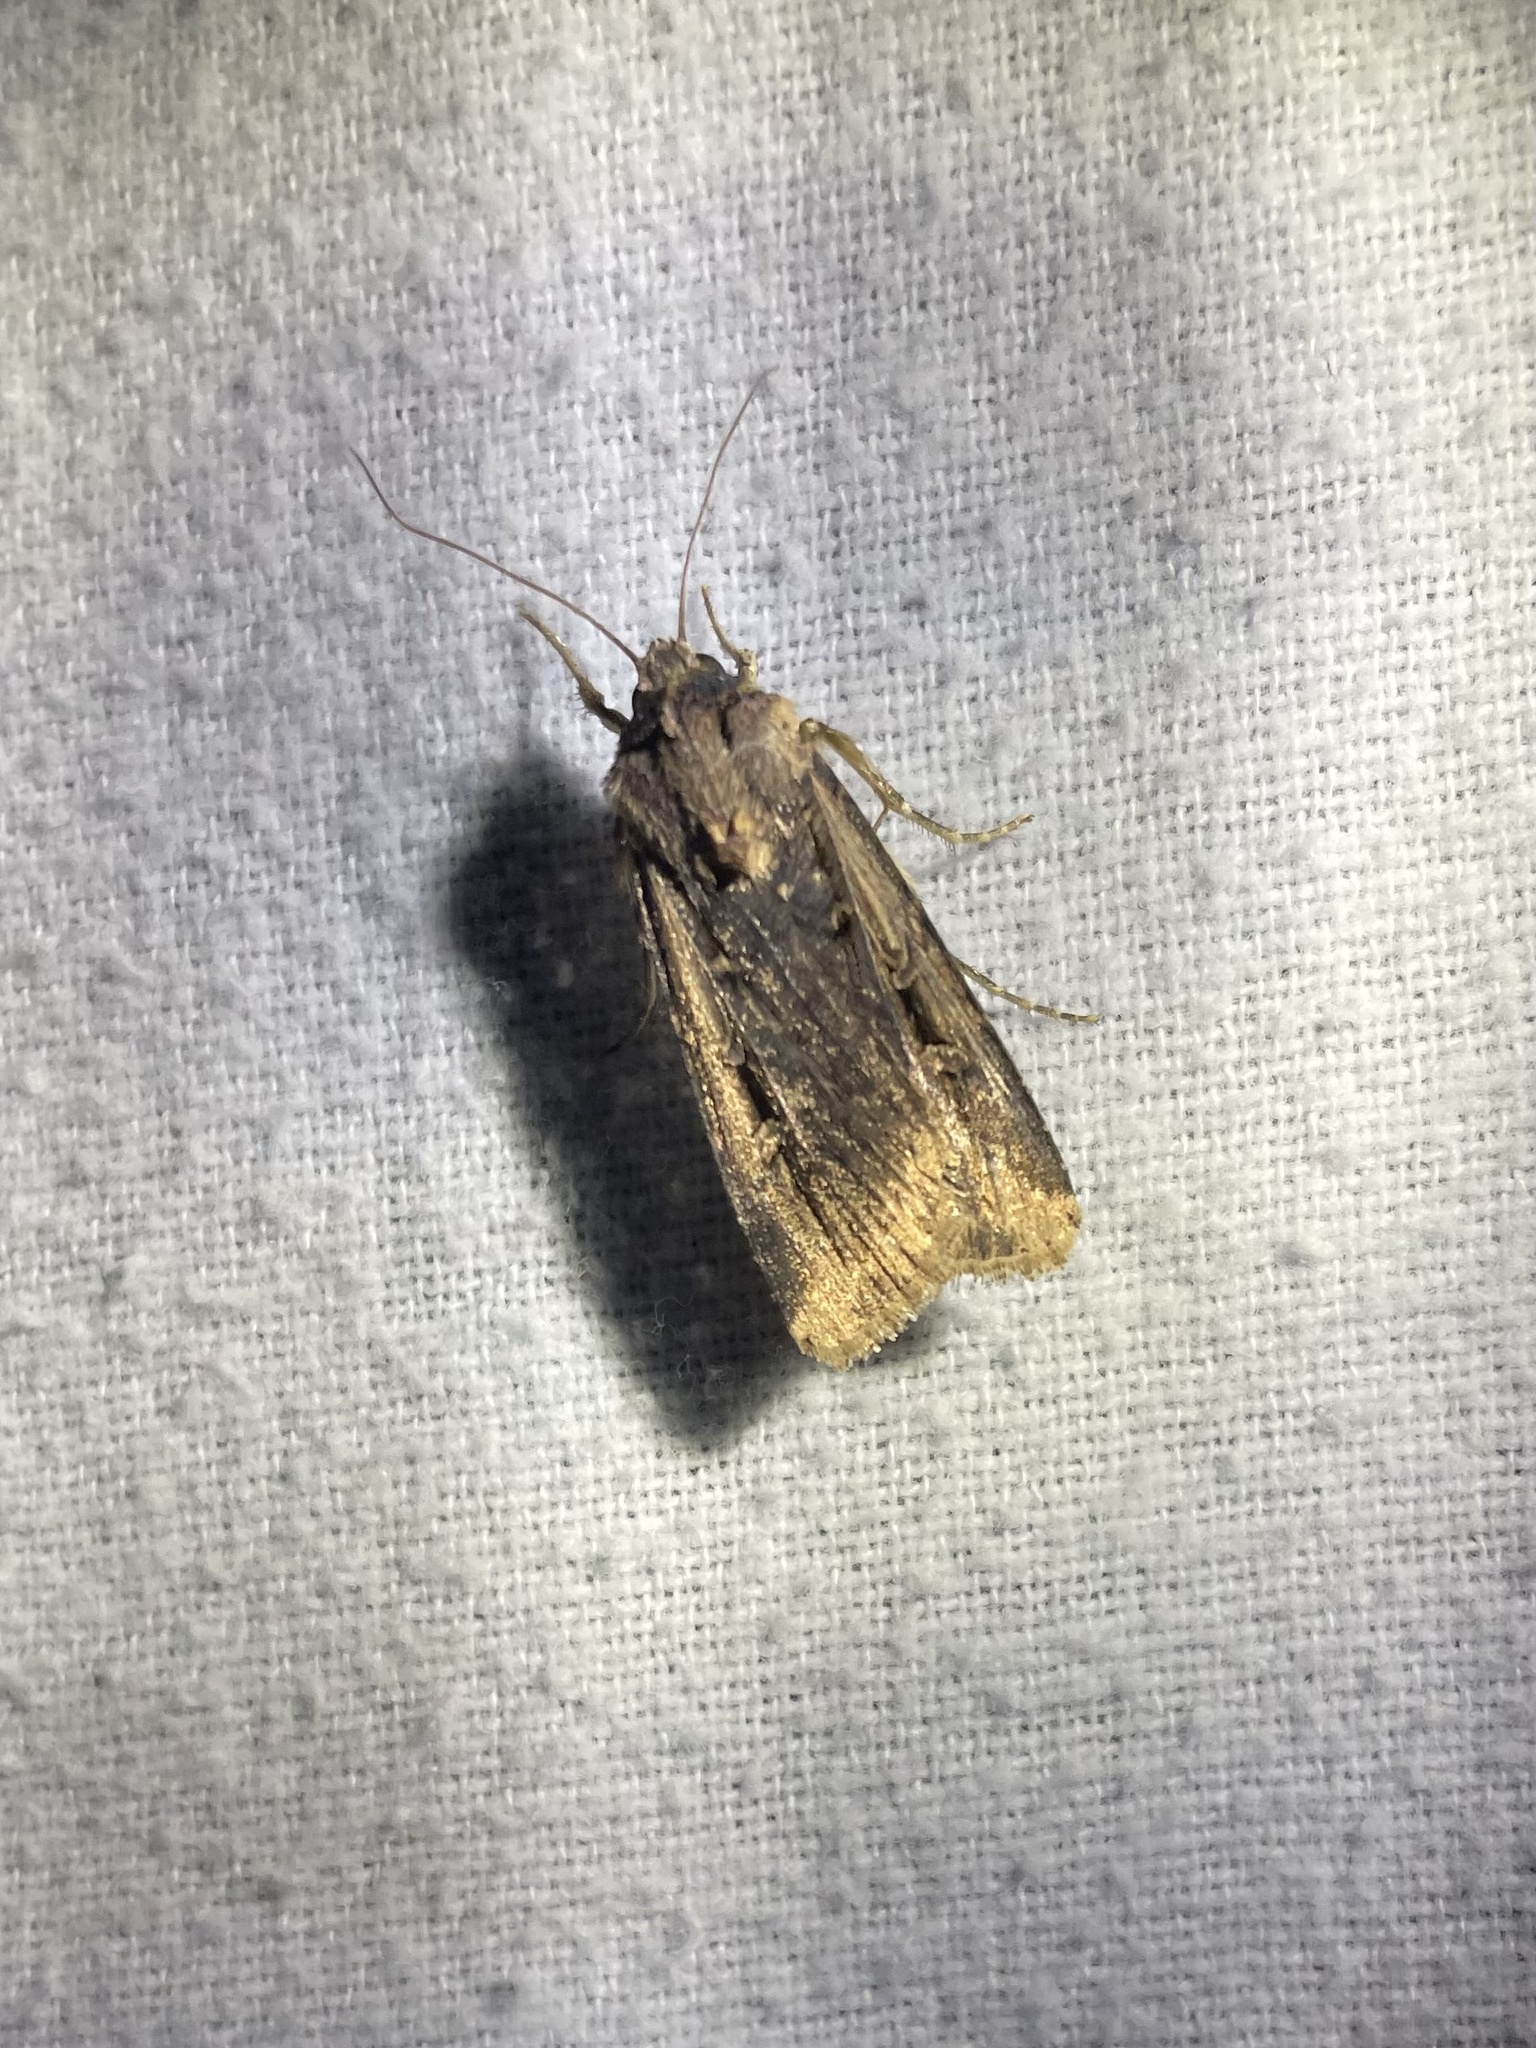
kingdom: Animalia
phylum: Arthropoda
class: Insecta
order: Lepidoptera
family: Noctuidae
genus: Feltia
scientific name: Feltia subterranea
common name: Granulate cutworm
